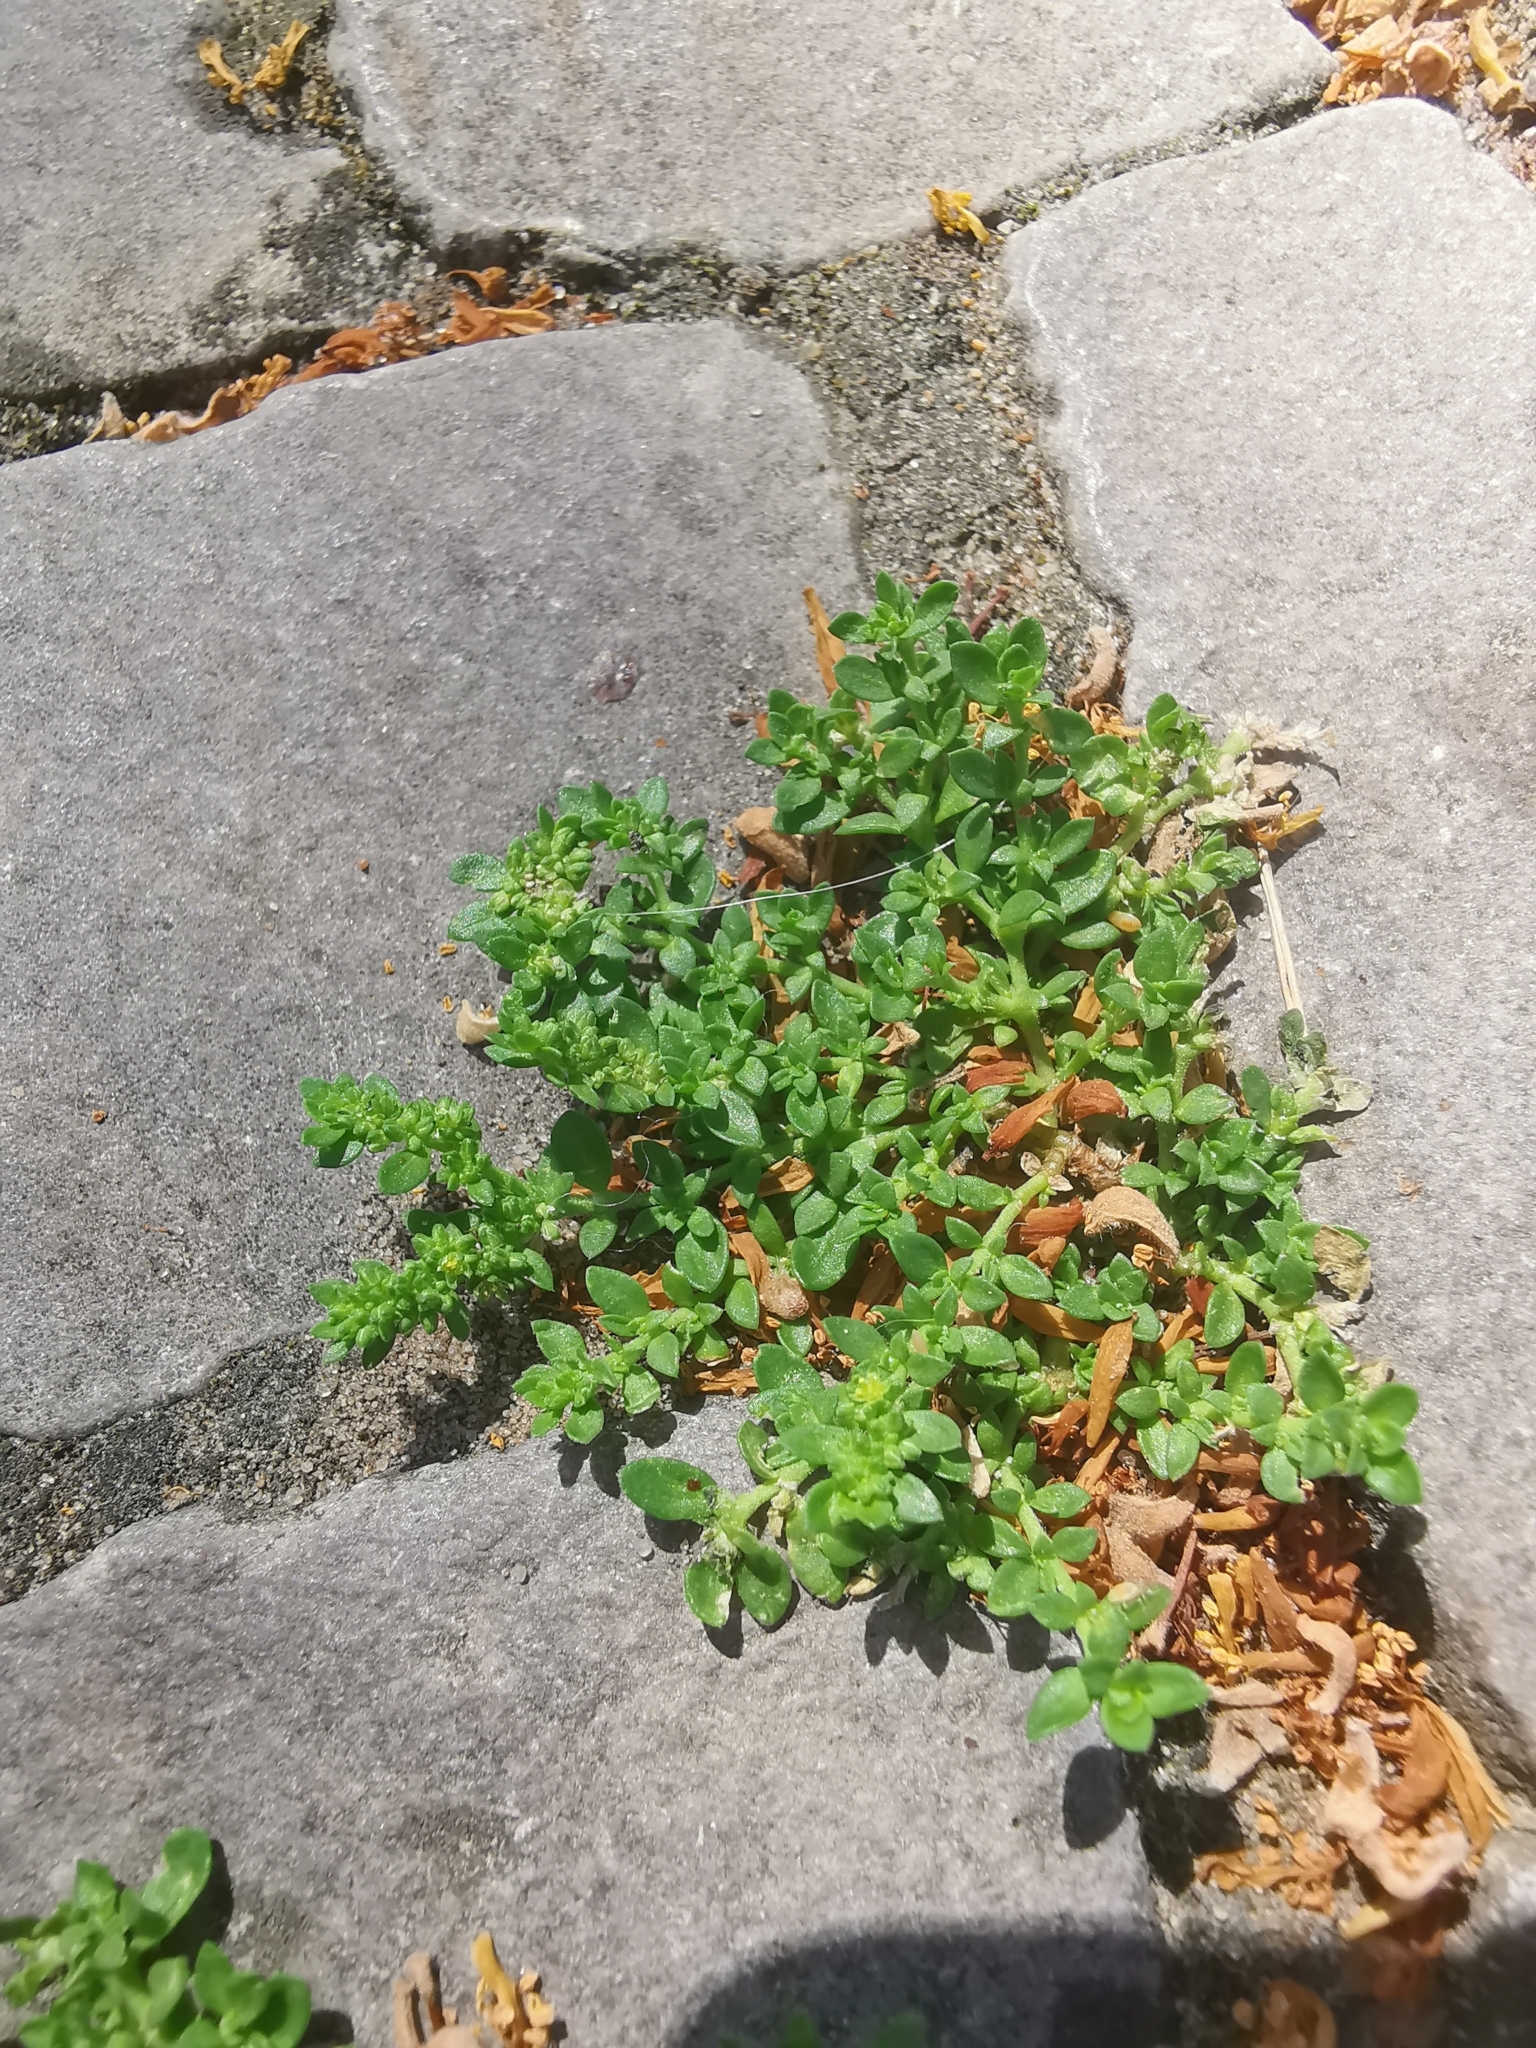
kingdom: Plantae
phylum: Tracheophyta
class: Magnoliopsida
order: Caryophyllales
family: Caryophyllaceae
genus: Herniaria
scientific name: Herniaria glabra
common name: Smooth rupturewort
